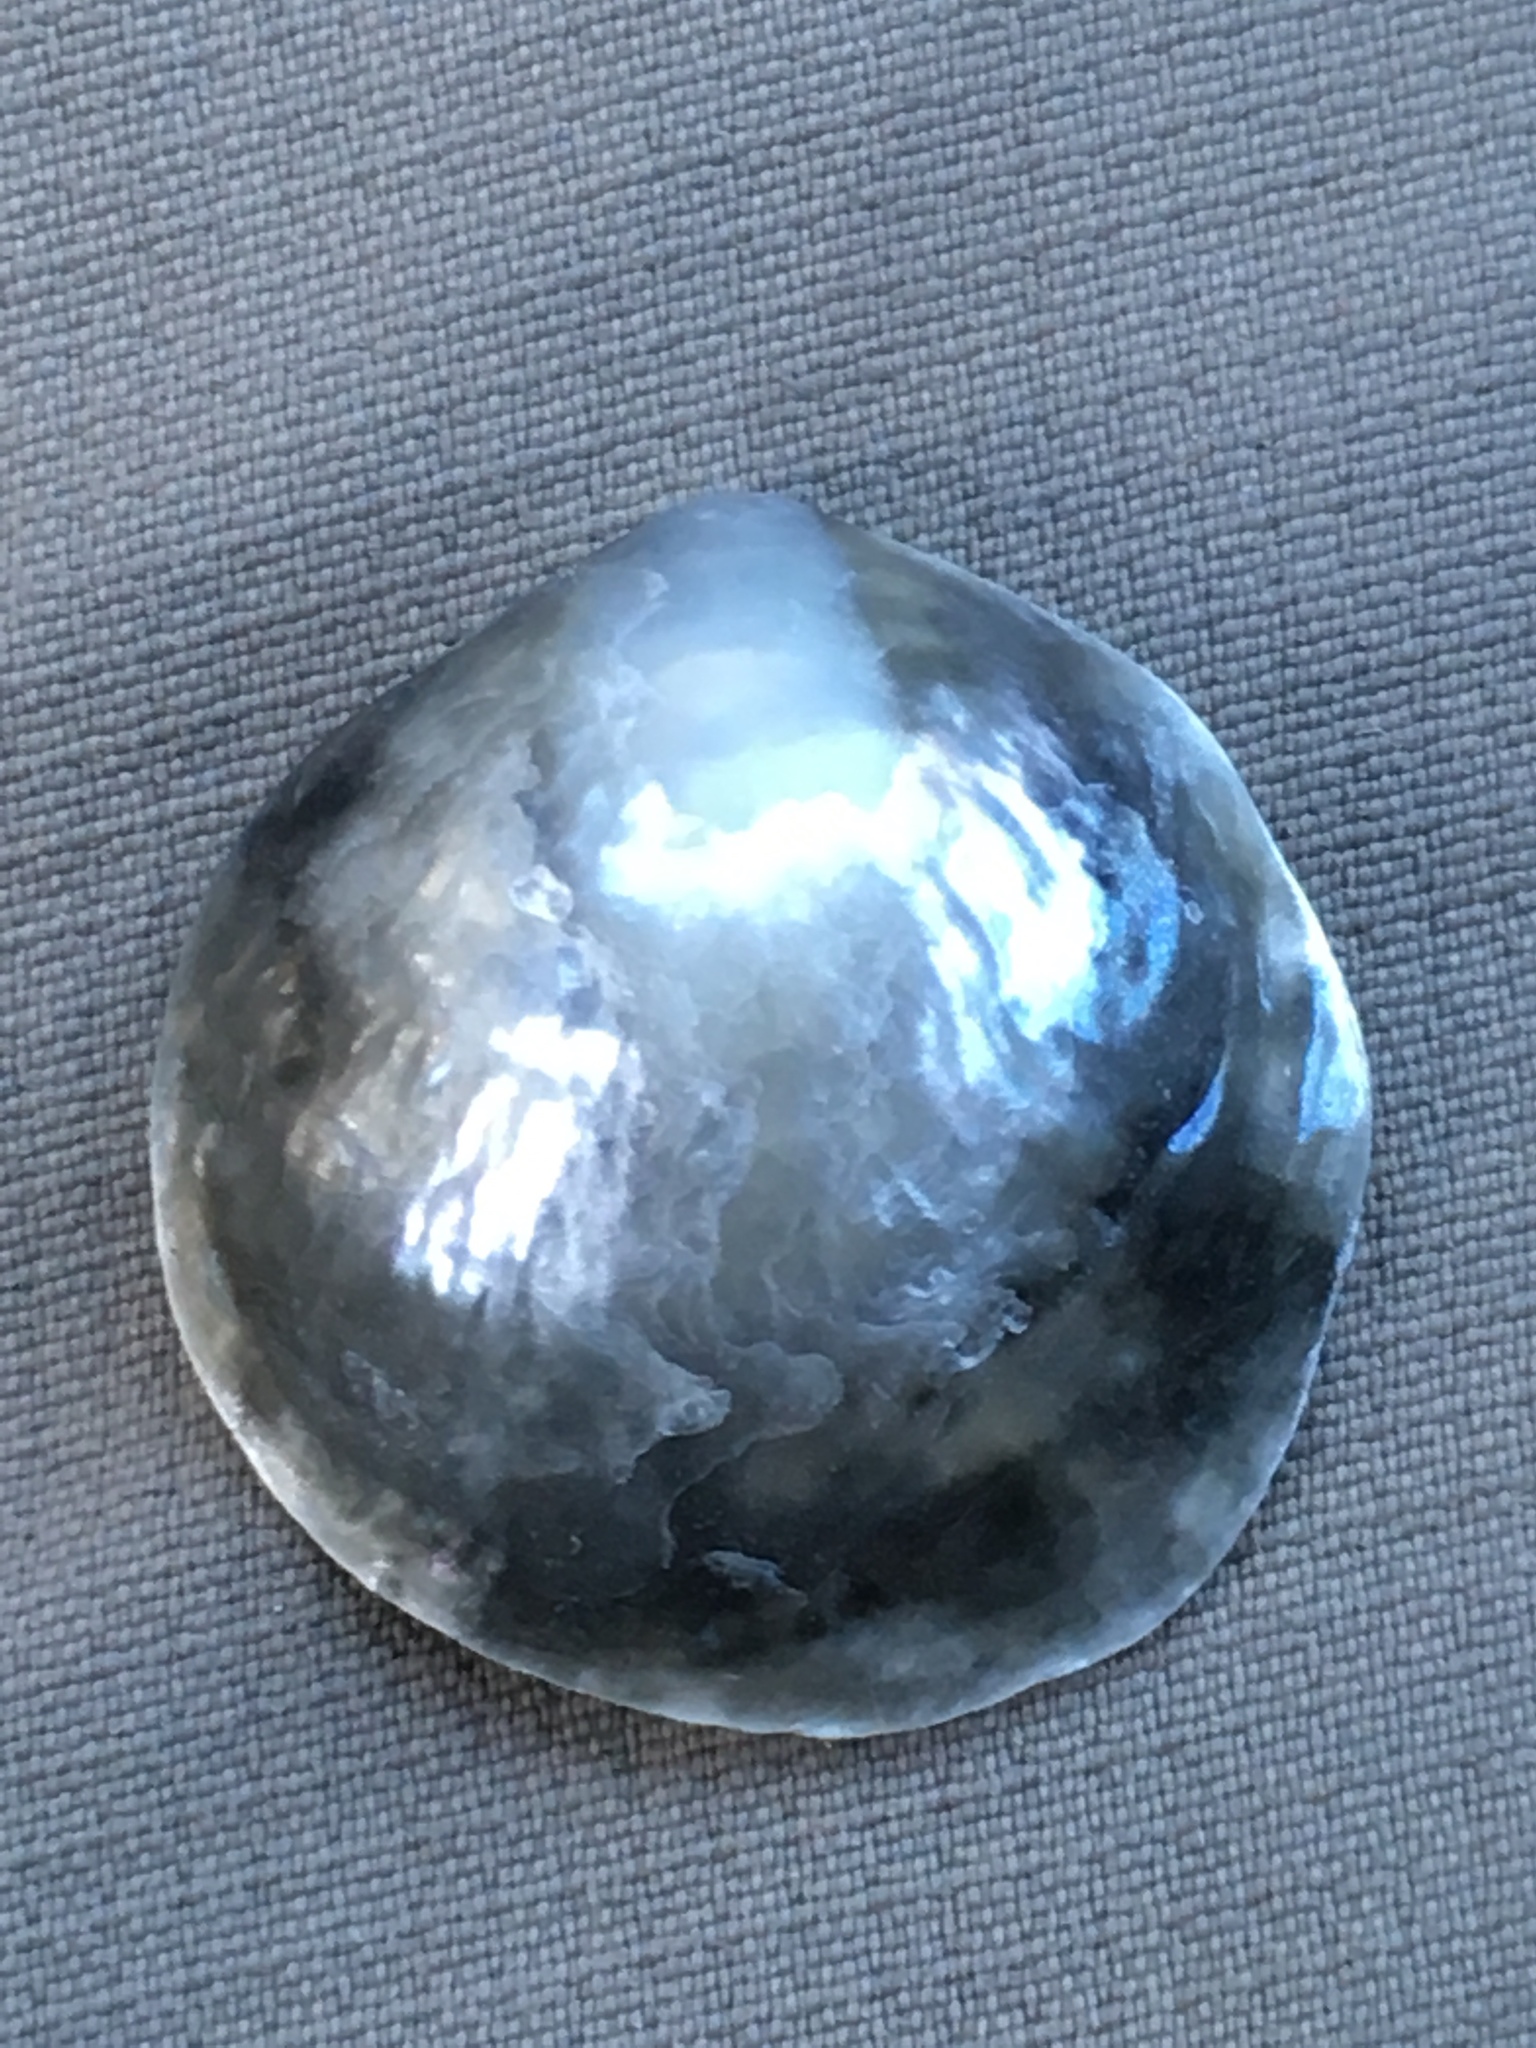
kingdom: Animalia
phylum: Mollusca
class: Bivalvia
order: Pectinida
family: Anomiidae
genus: Anomia
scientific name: Anomia simplex
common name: Common jingle shell
